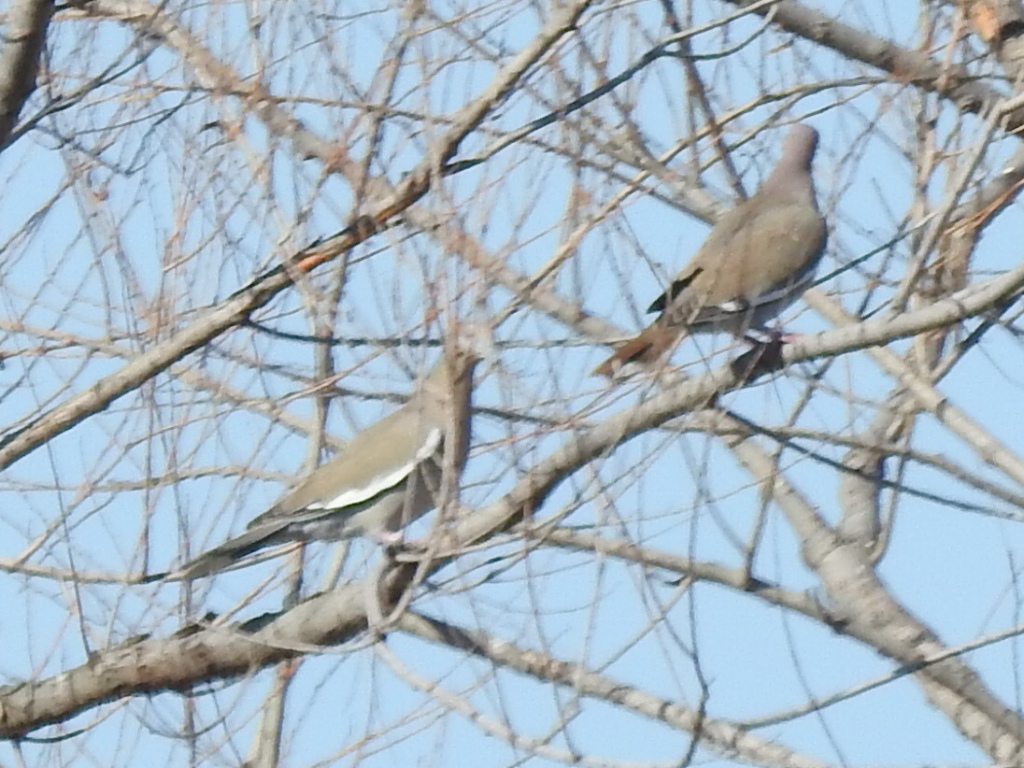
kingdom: Animalia
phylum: Chordata
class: Aves
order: Columbiformes
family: Columbidae
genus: Zenaida
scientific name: Zenaida asiatica
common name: White-winged dove
